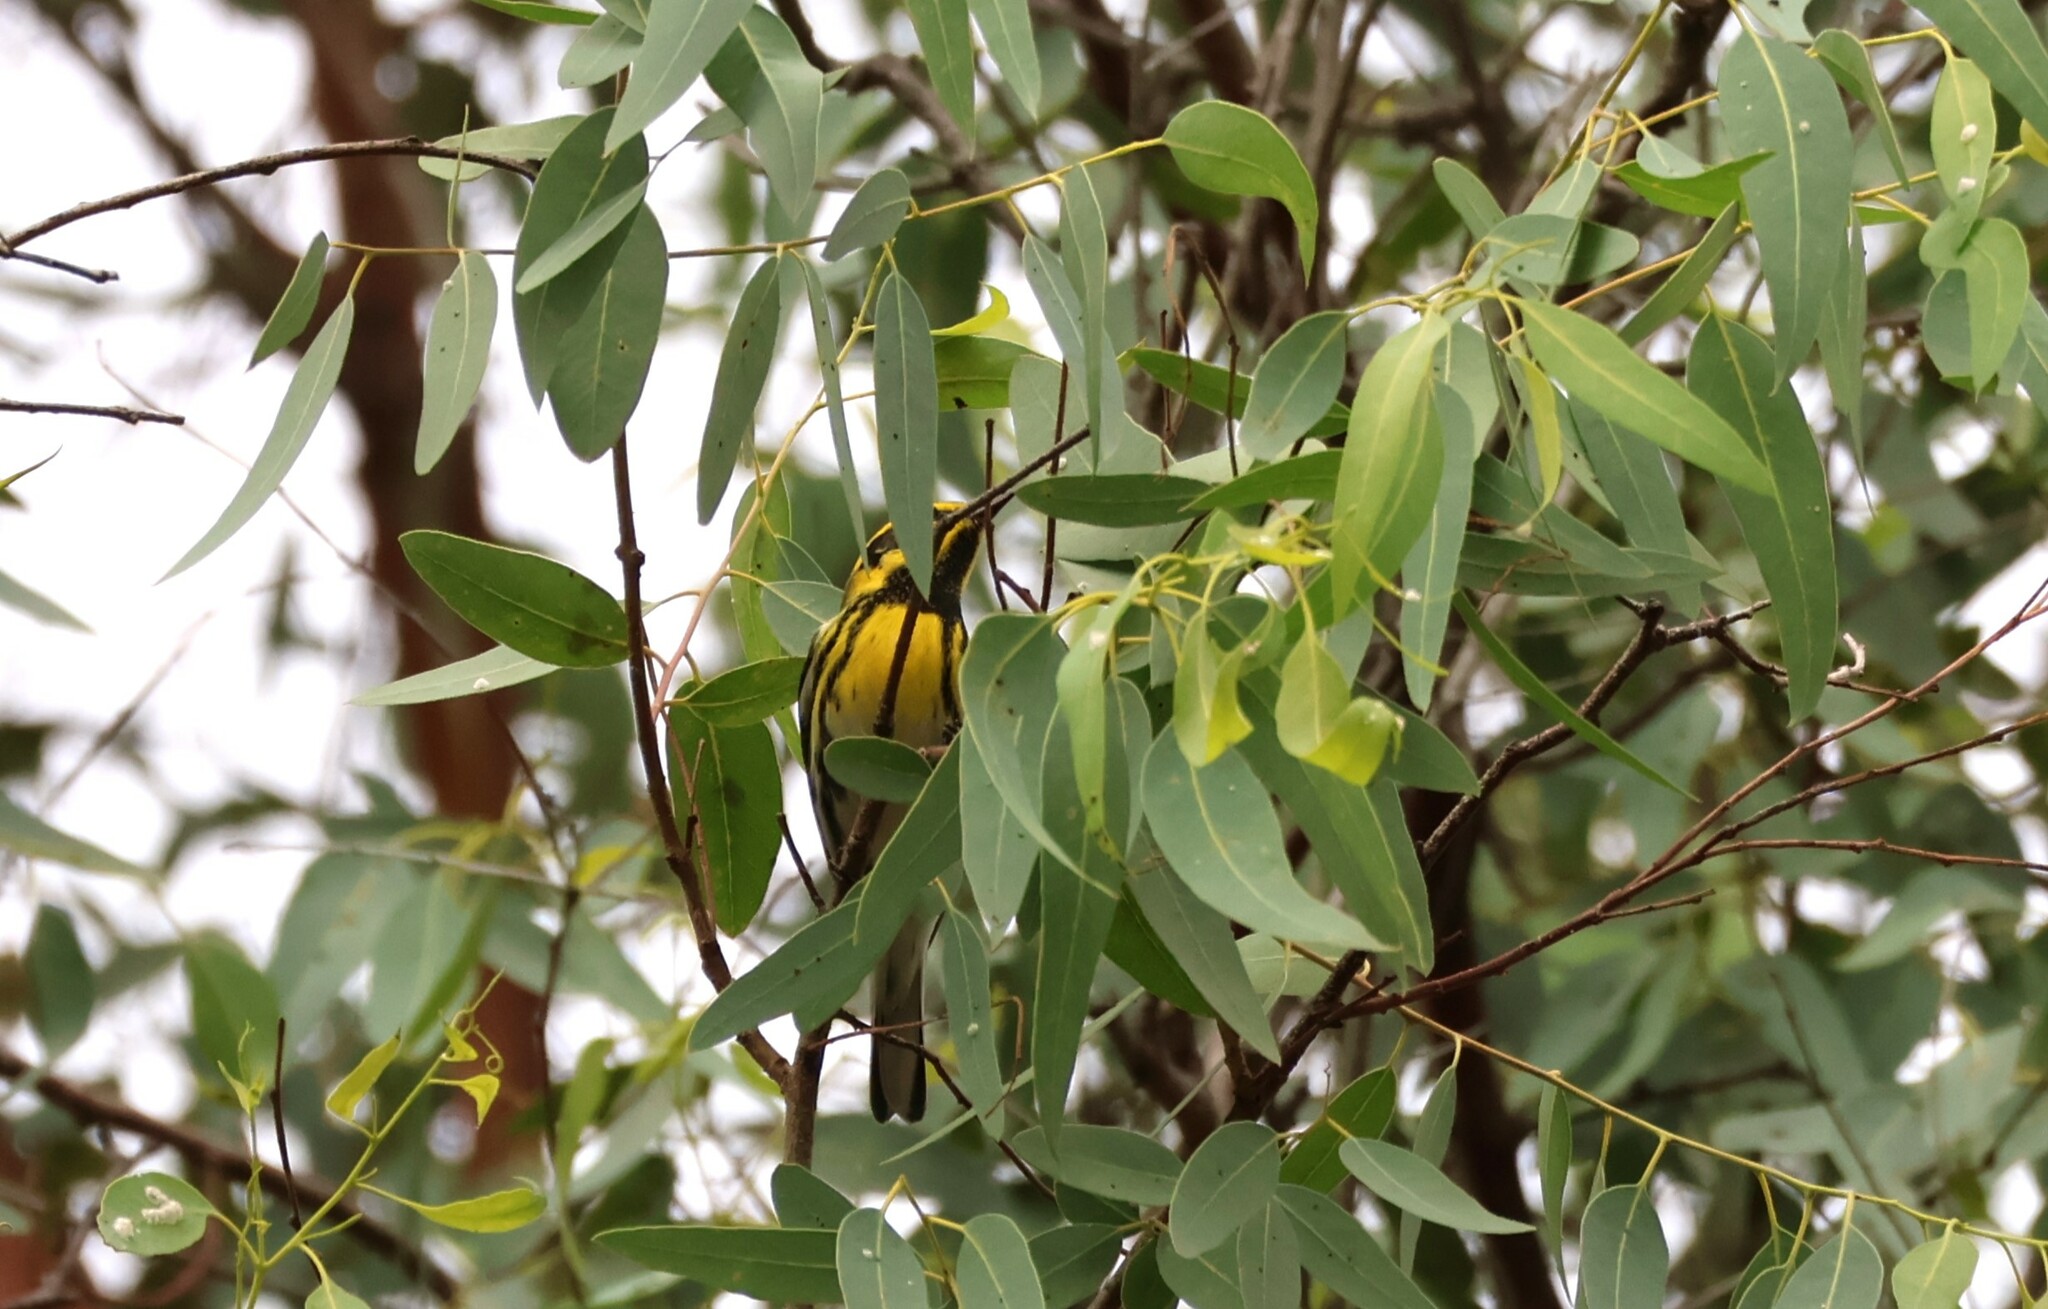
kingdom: Animalia
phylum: Chordata
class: Aves
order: Passeriformes
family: Parulidae
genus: Setophaga
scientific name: Setophaga townsendi
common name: Townsend's warbler
